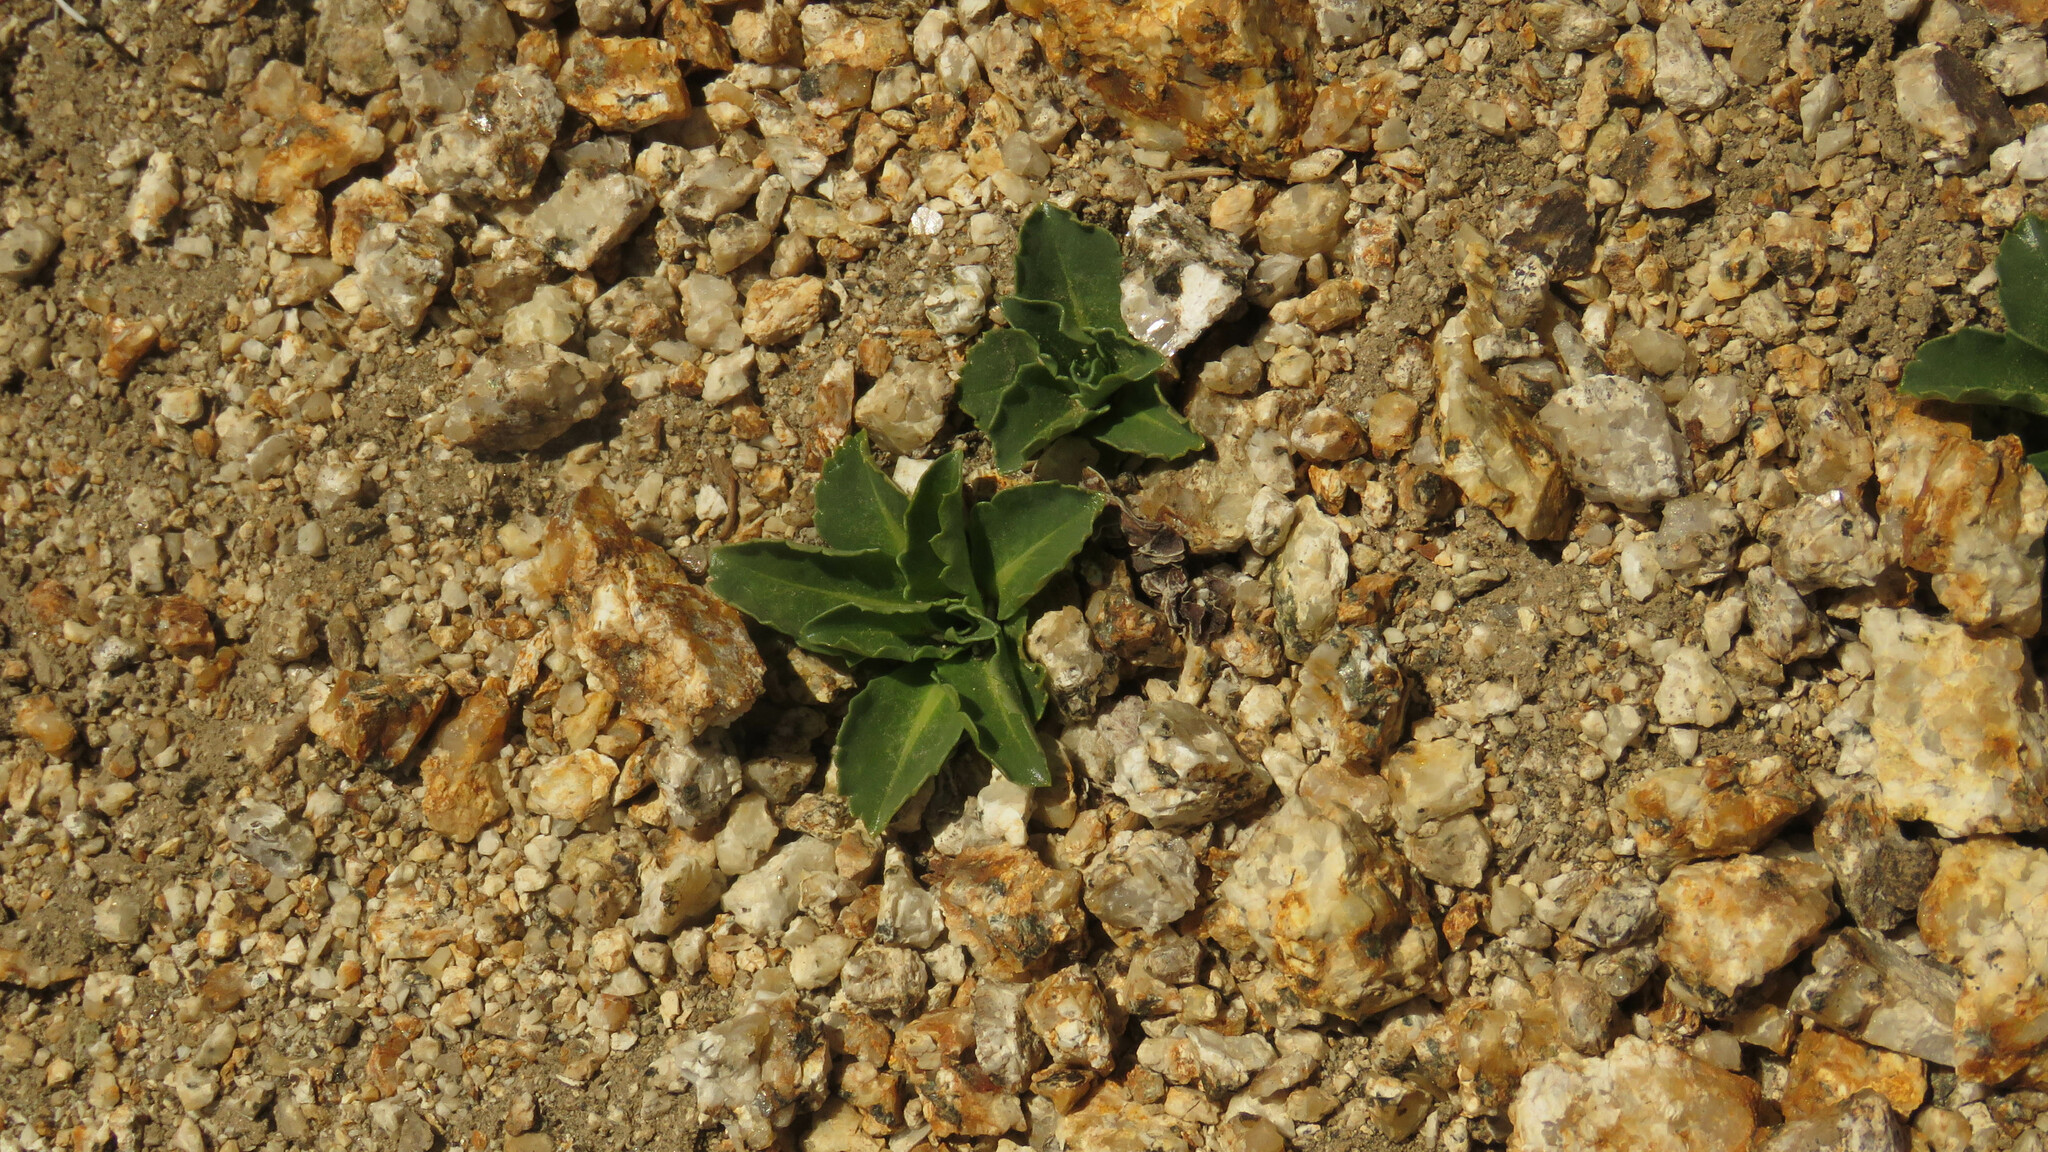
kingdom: Plantae
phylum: Tracheophyta
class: Magnoliopsida
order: Asterales
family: Asteraceae
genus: Perezia
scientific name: Perezia bellidifolia
